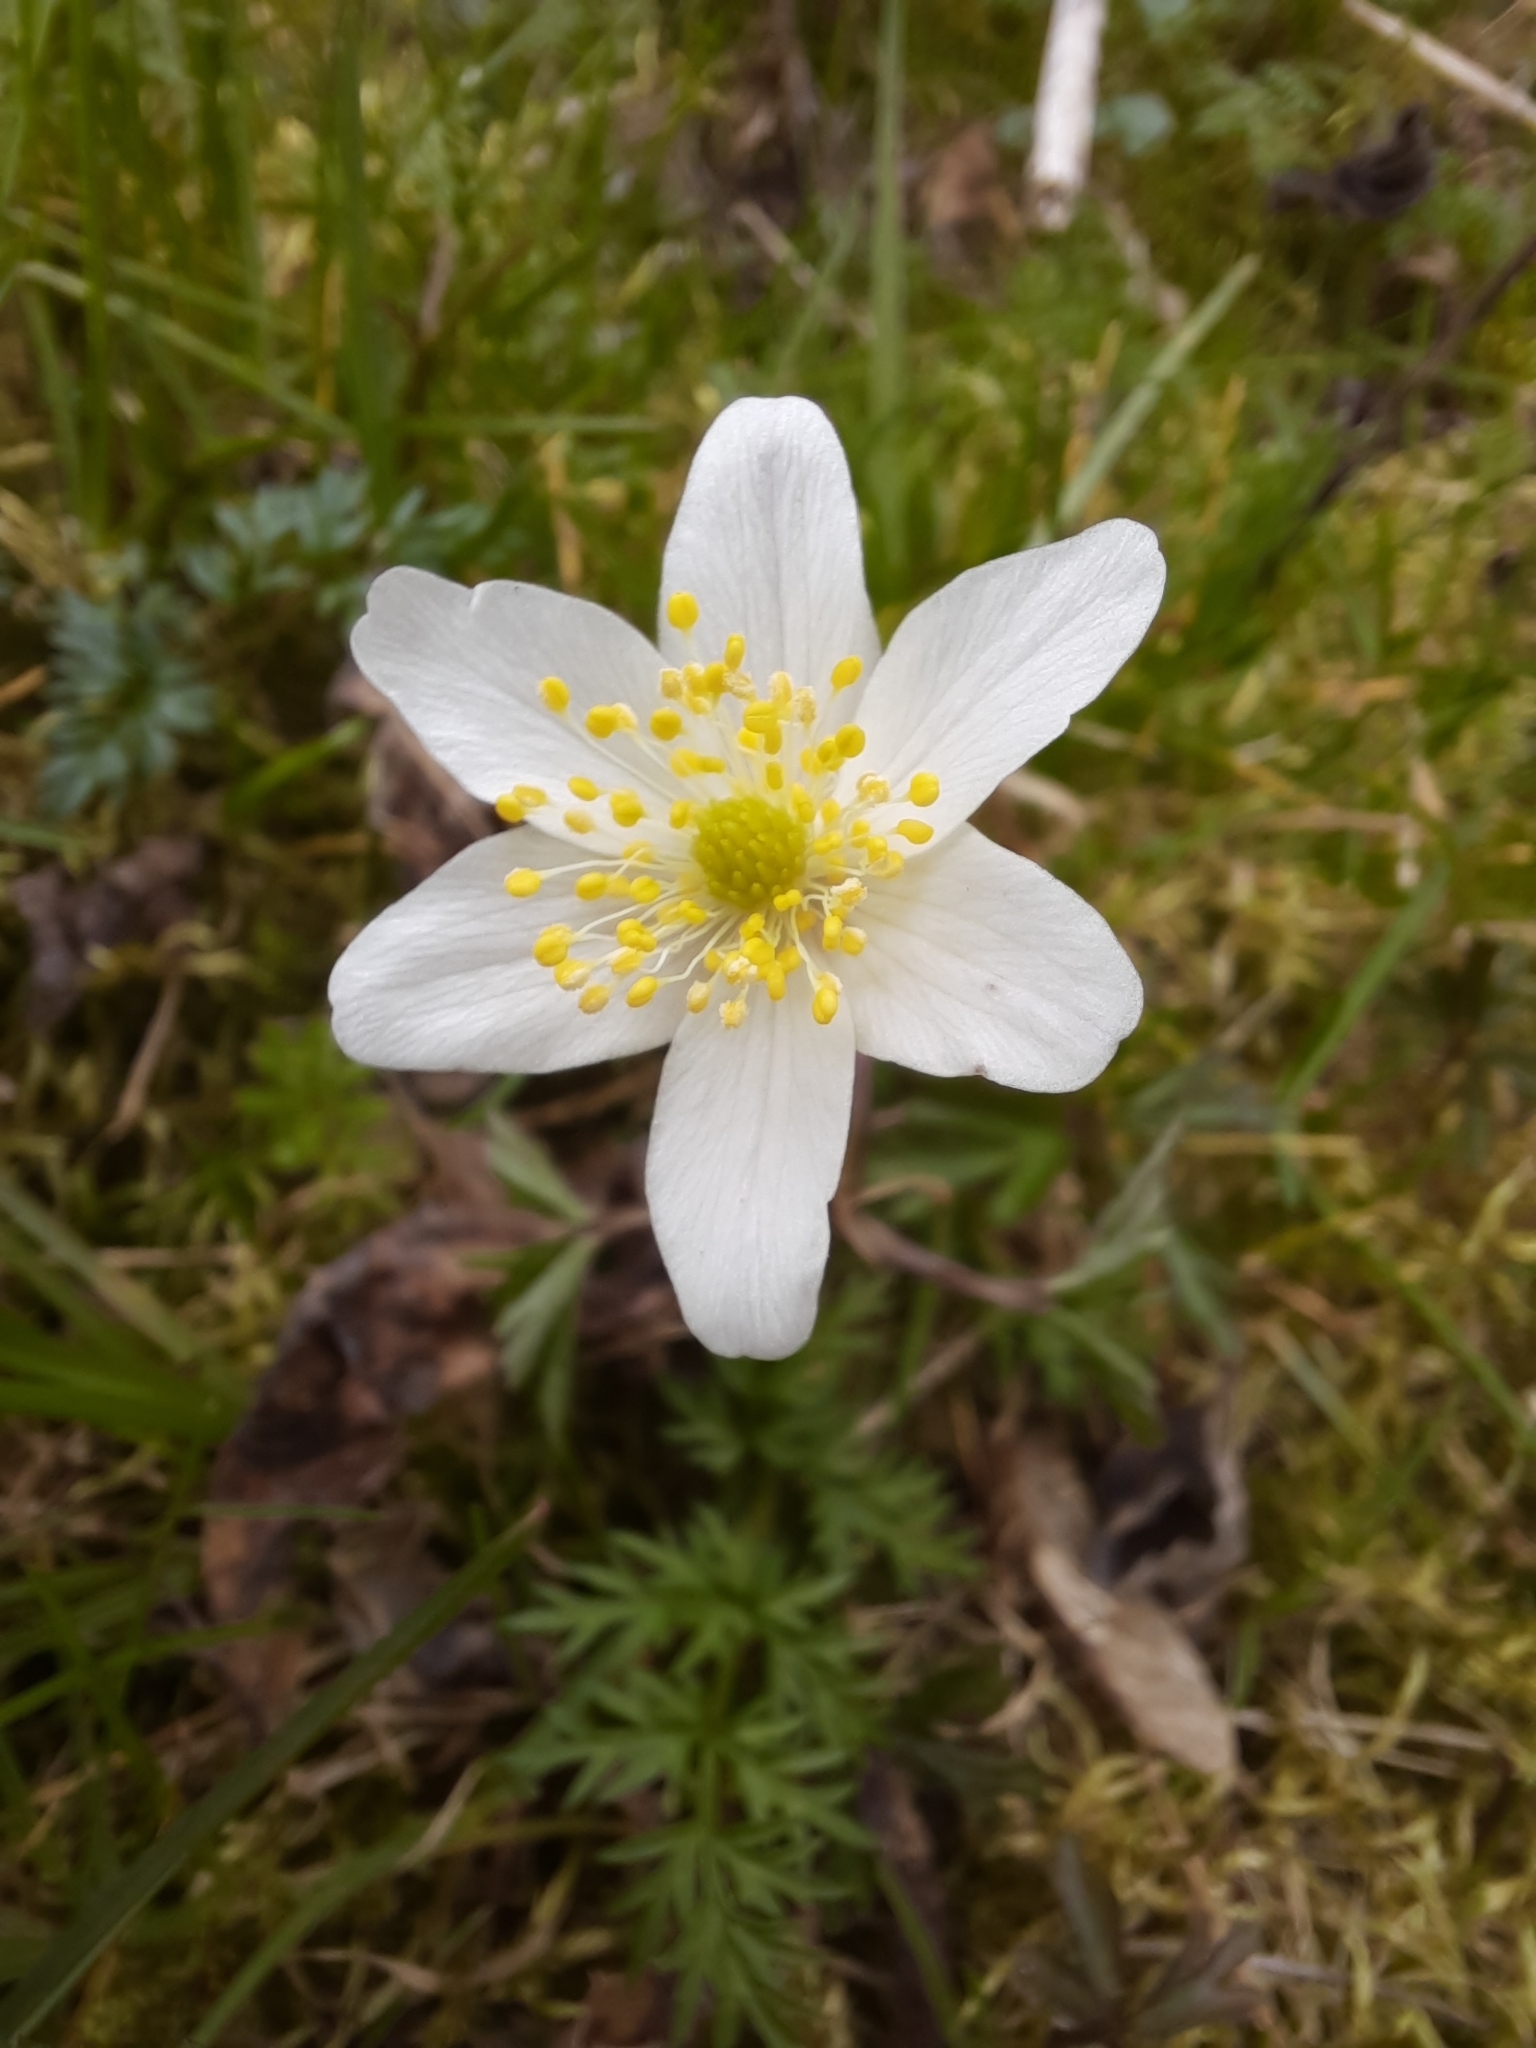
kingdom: Plantae
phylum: Tracheophyta
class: Magnoliopsida
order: Ranunculales
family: Ranunculaceae
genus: Anemone
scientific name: Anemone nemorosa
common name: Wood anemone
